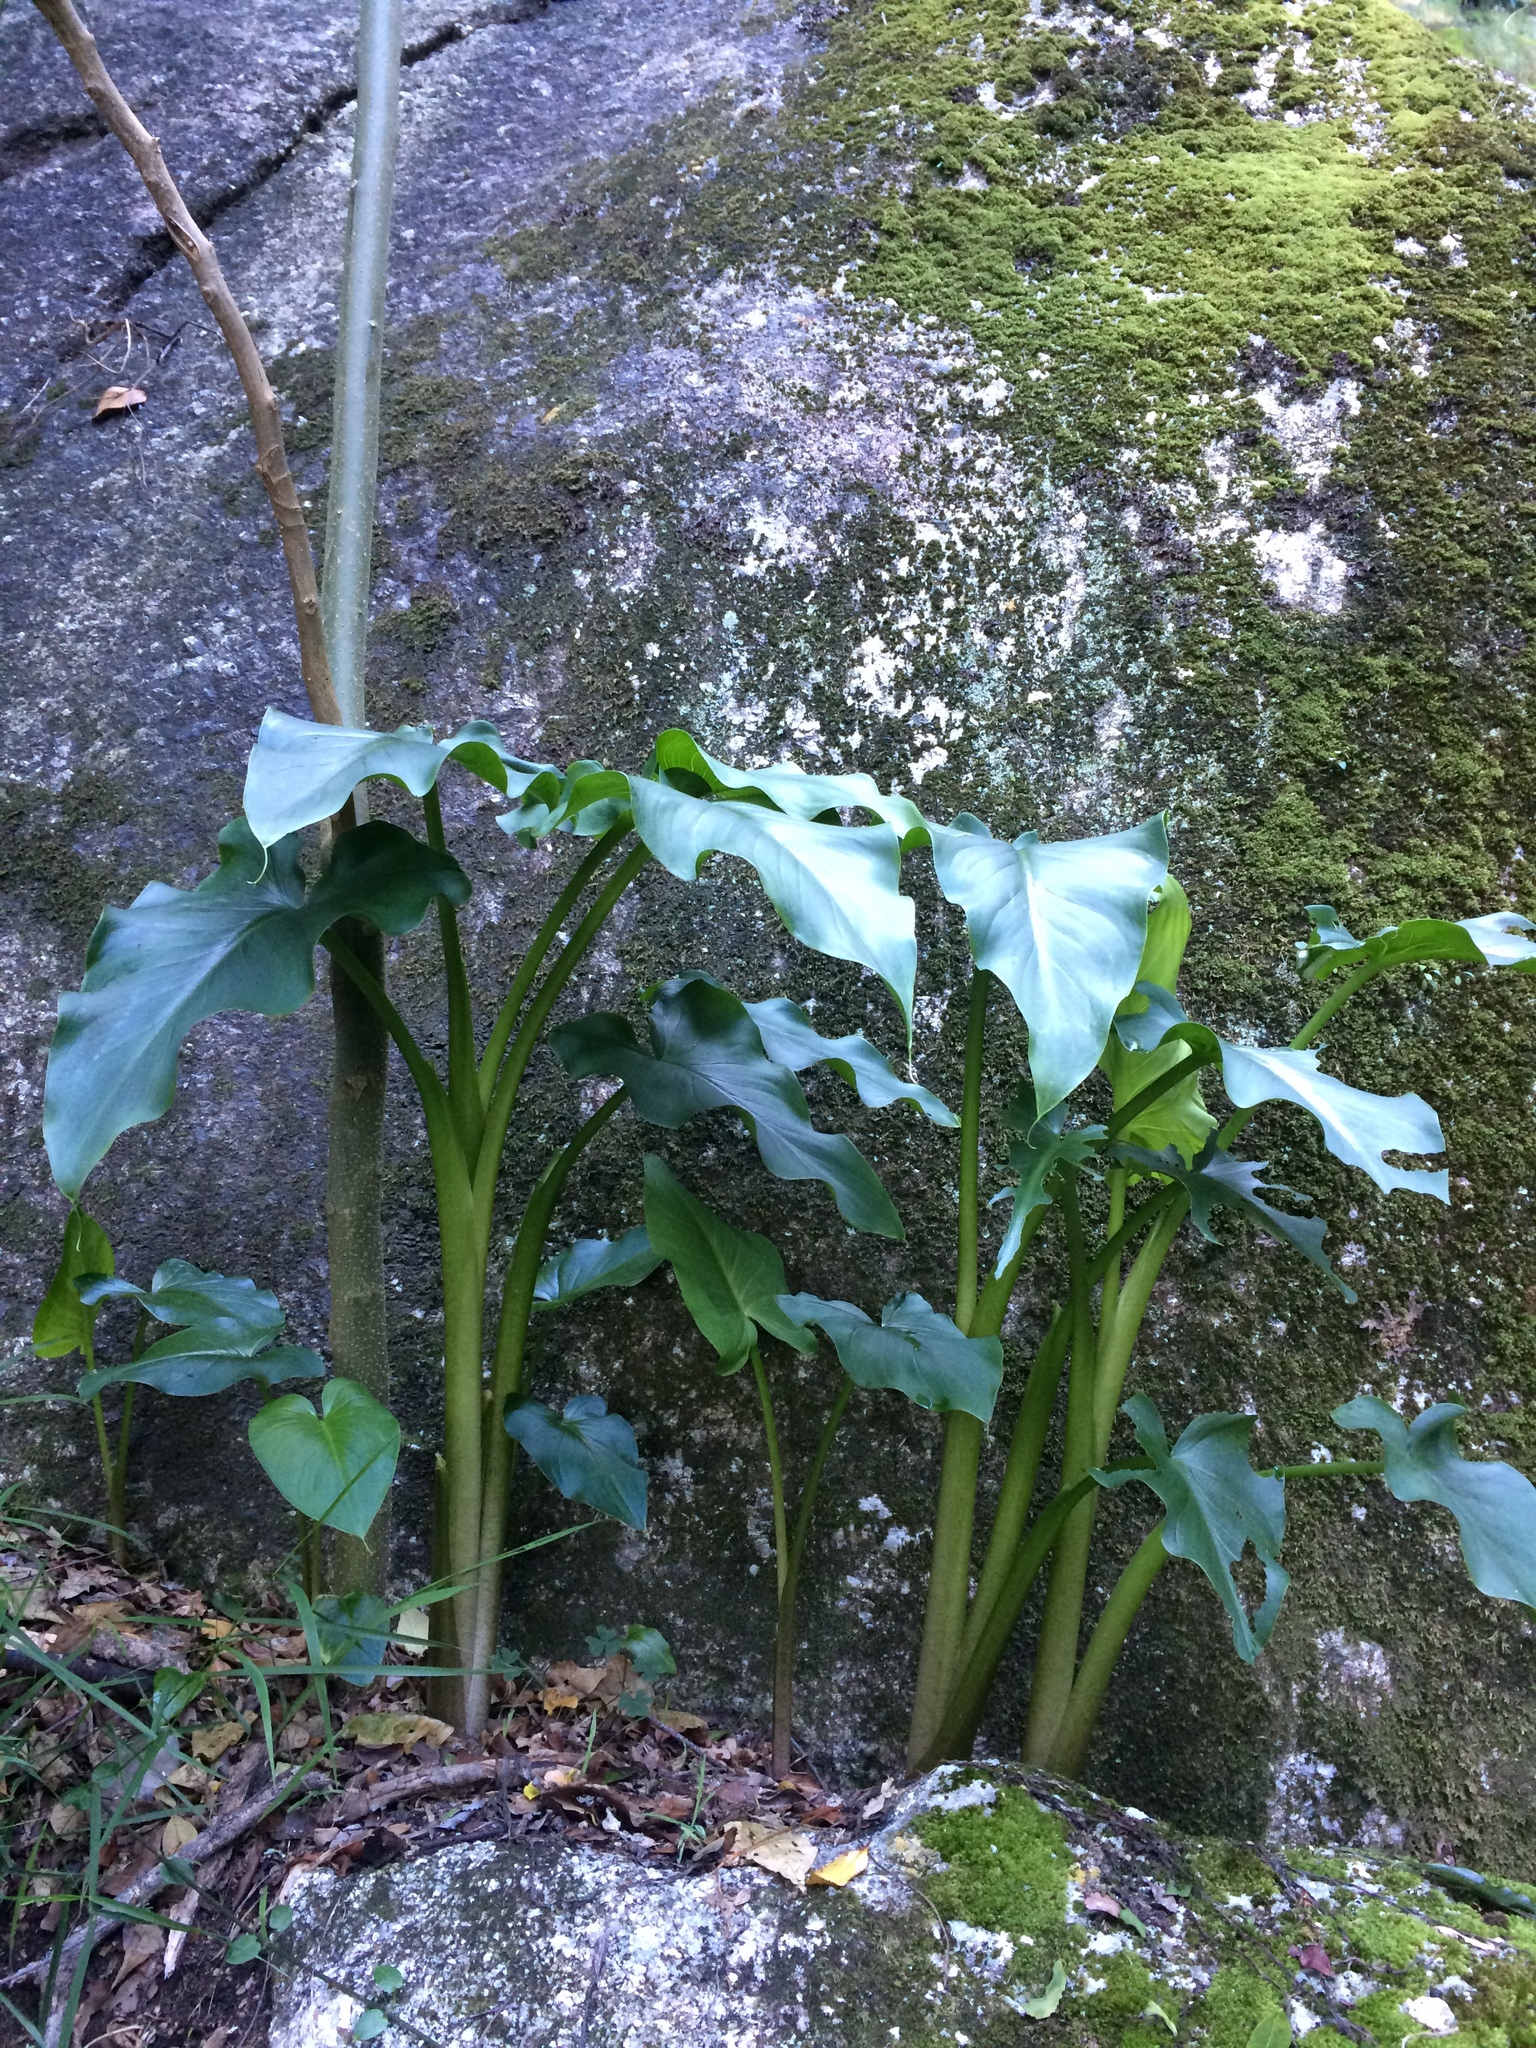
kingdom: Plantae
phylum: Tracheophyta
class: Liliopsida
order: Alismatales
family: Araceae
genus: Zantedeschia
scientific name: Zantedeschia aethiopica
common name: Altar-lily
